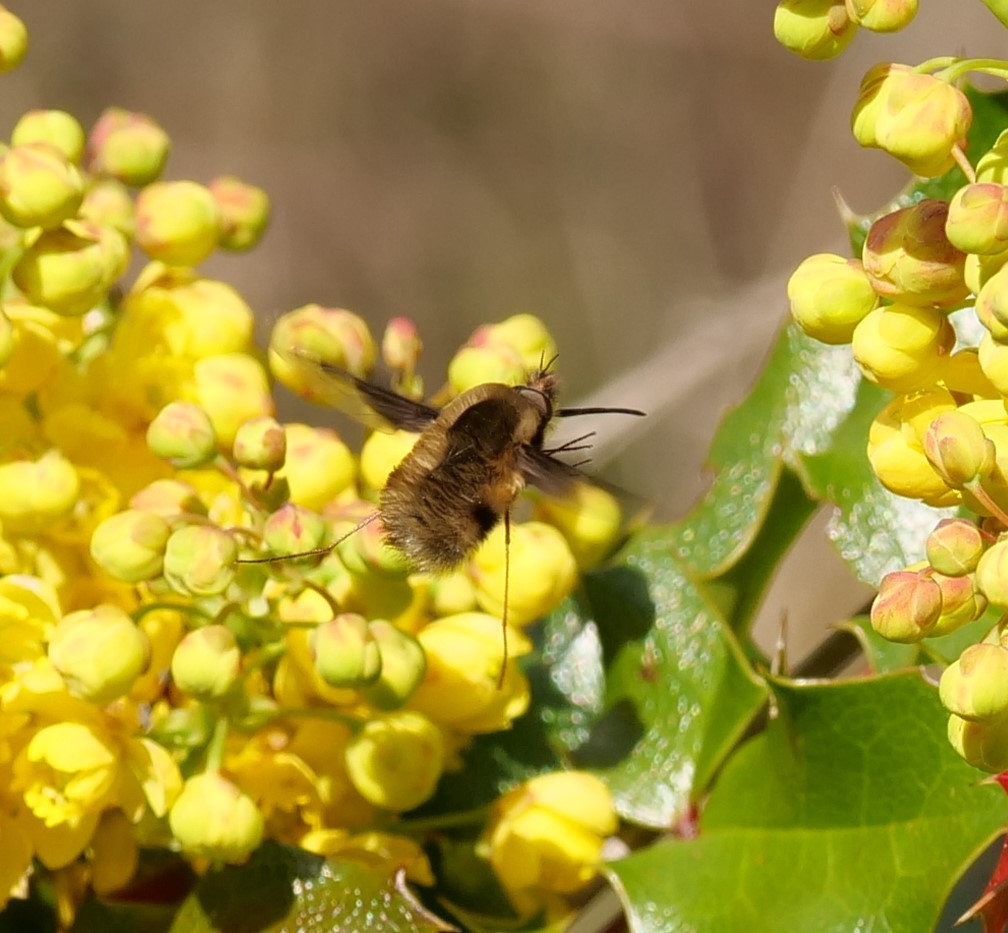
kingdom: Animalia
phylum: Arthropoda
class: Insecta
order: Diptera
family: Bombyliidae
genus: Bombylius
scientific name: Bombylius major
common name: Bee fly
